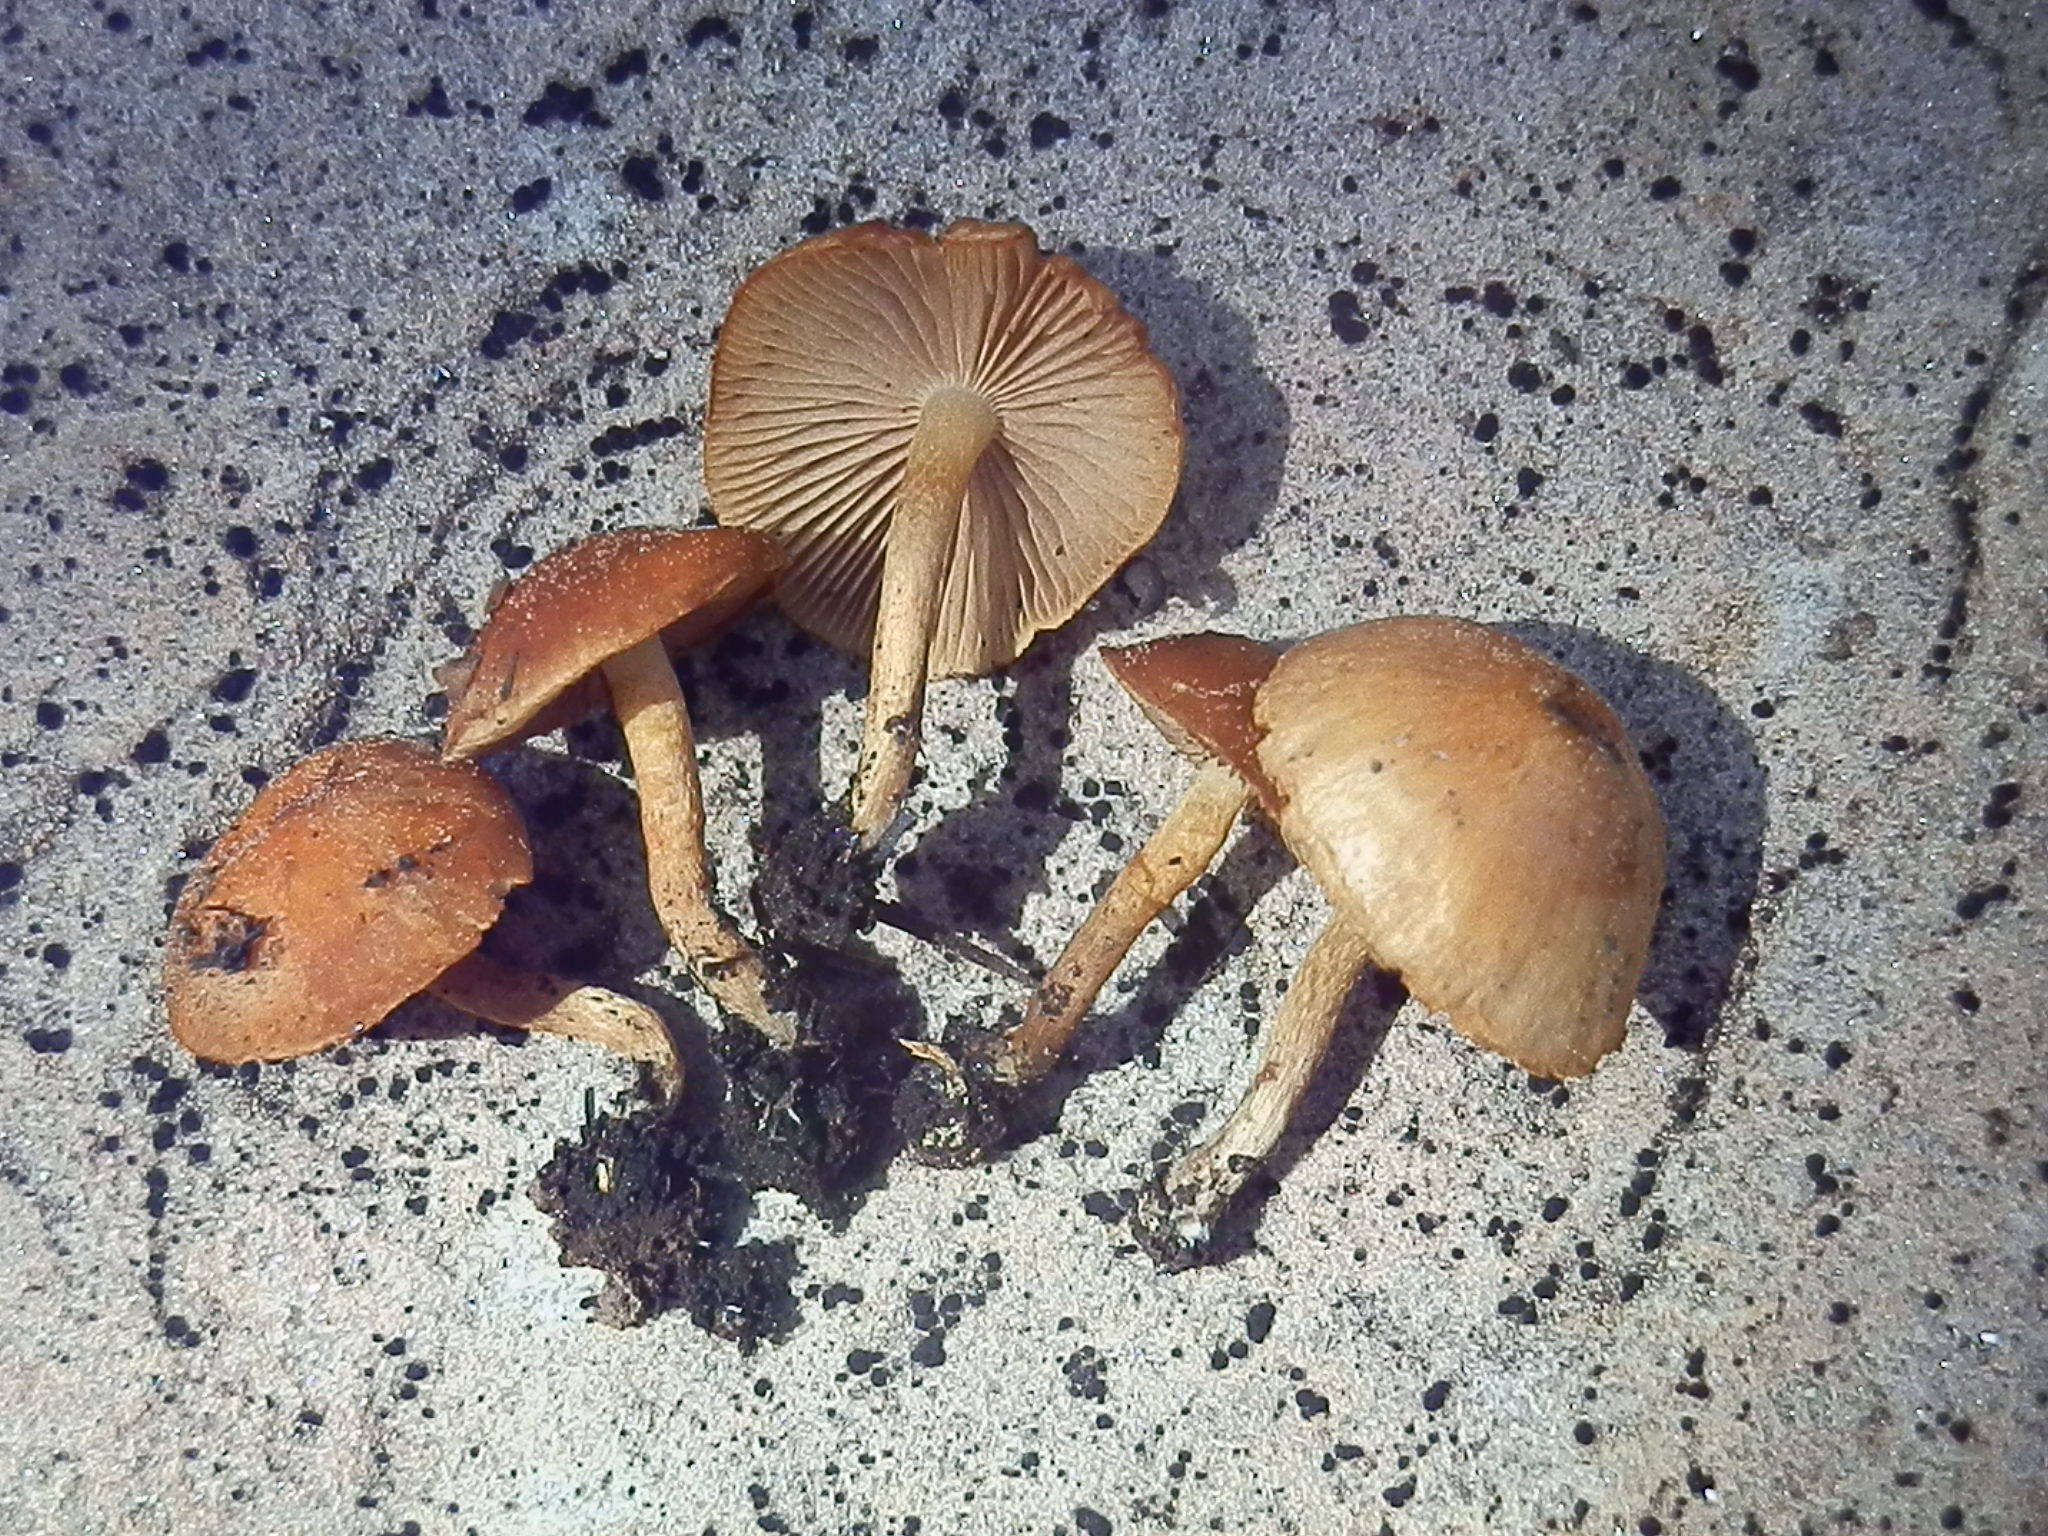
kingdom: Fungi
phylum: Basidiomycota
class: Agaricomycetes
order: Agaricales
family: Strophariaceae
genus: Pholiota
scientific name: Pholiota brunnescens
